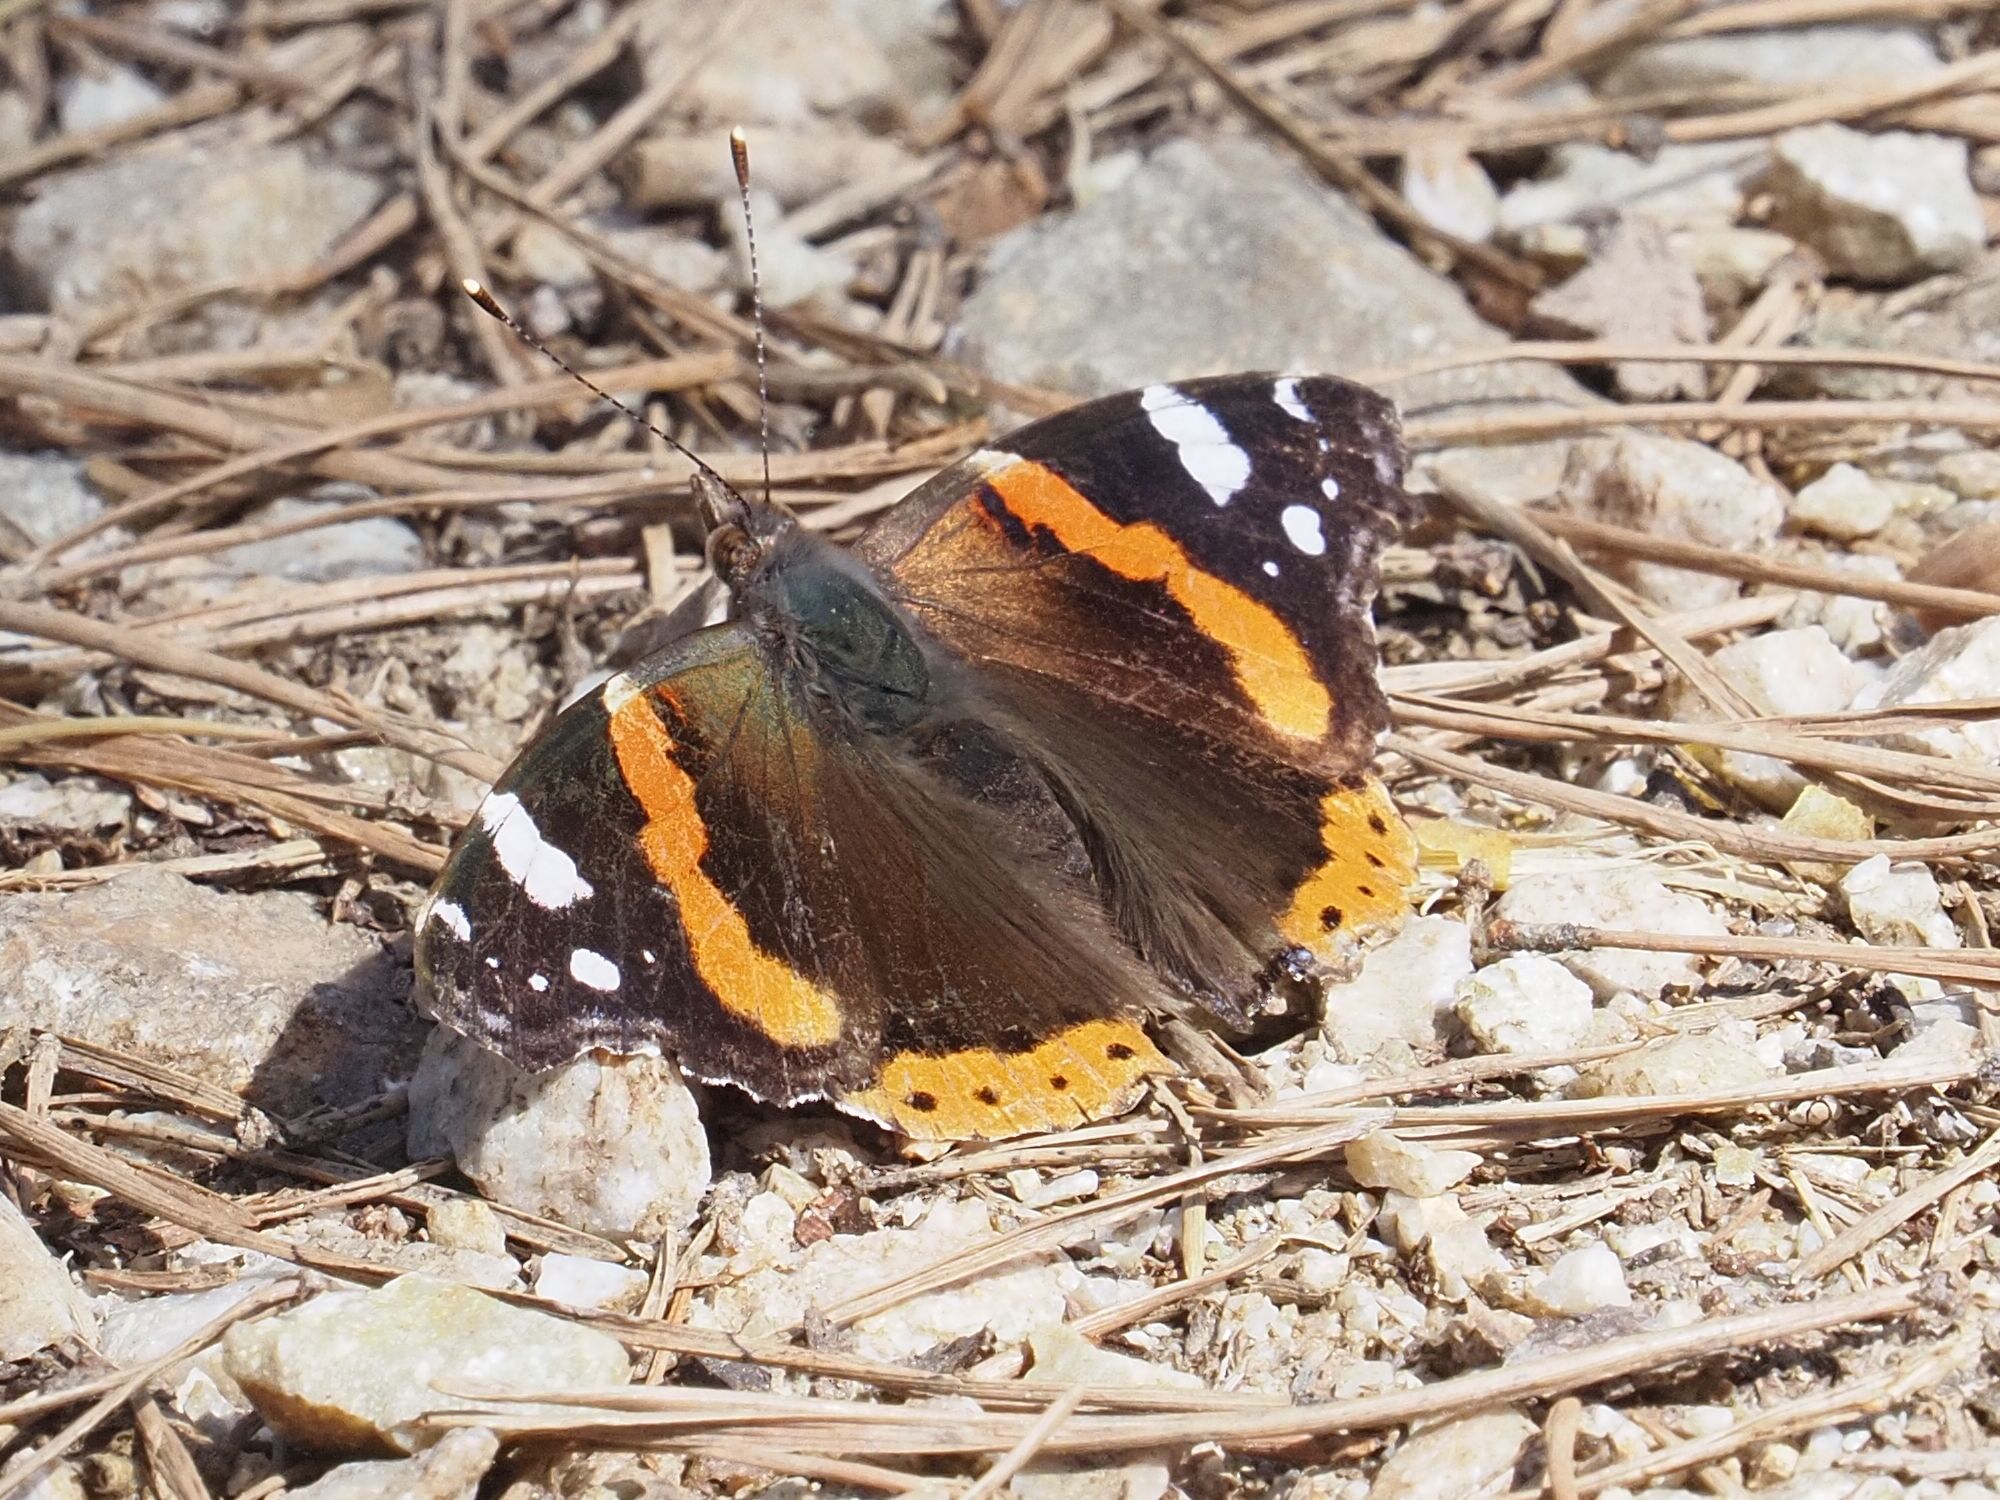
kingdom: Animalia
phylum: Arthropoda
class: Insecta
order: Lepidoptera
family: Nymphalidae
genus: Vanessa
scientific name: Vanessa atalanta
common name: Red admiral
